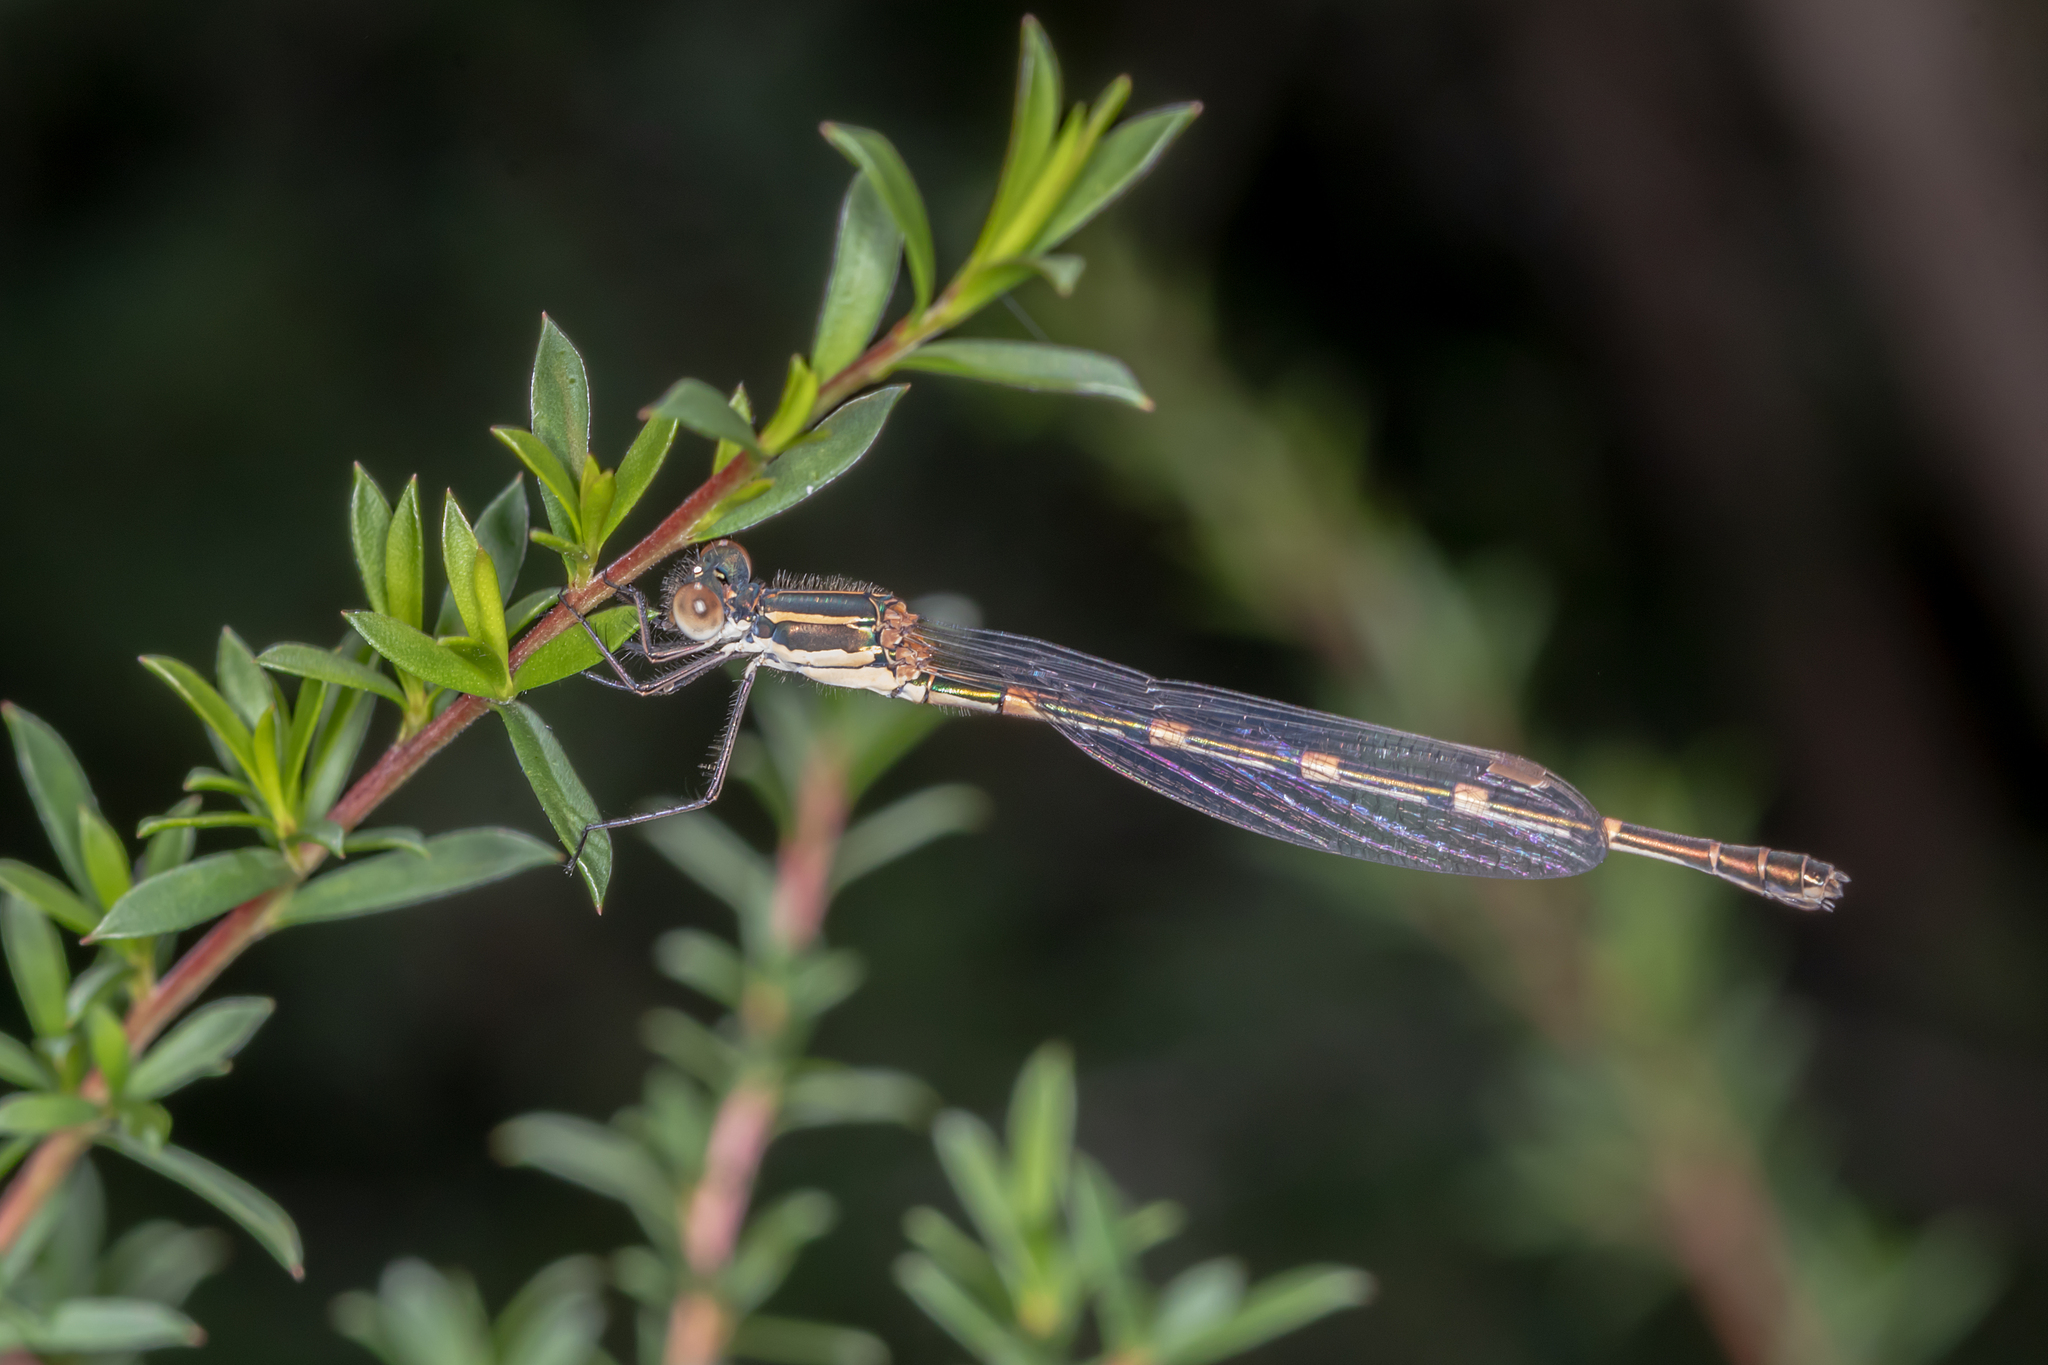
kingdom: Animalia
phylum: Arthropoda
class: Insecta
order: Odonata
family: Lestidae
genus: Austrolestes
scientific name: Austrolestes leda
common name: Wandering ringtail
